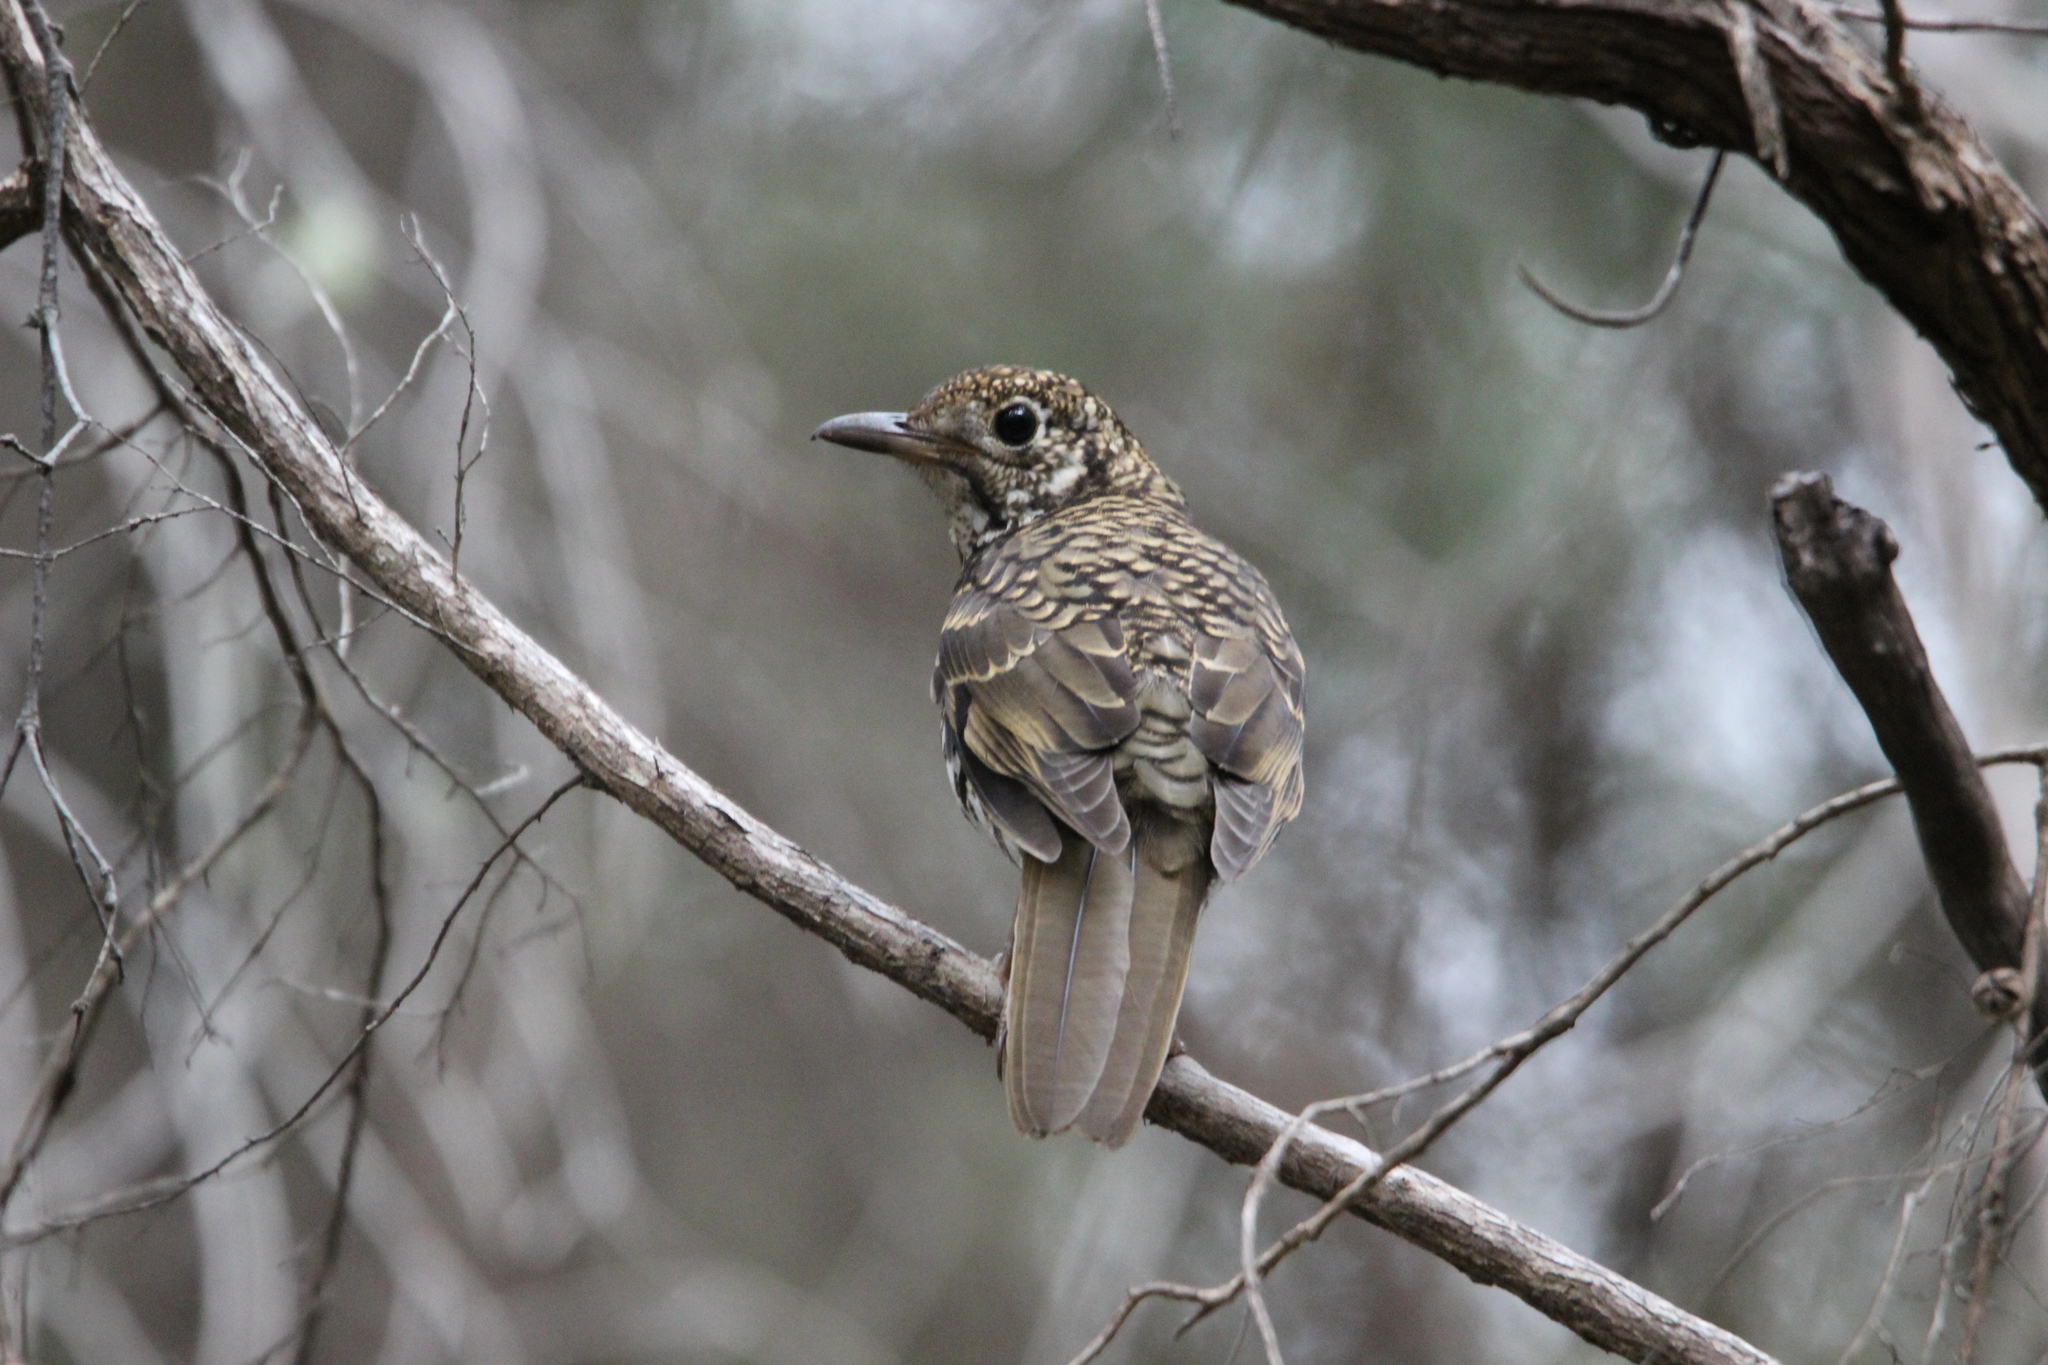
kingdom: Animalia
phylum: Chordata
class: Aves
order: Passeriformes
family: Turdidae
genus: Zoothera
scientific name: Zoothera lunulata
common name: Bassian thrush
